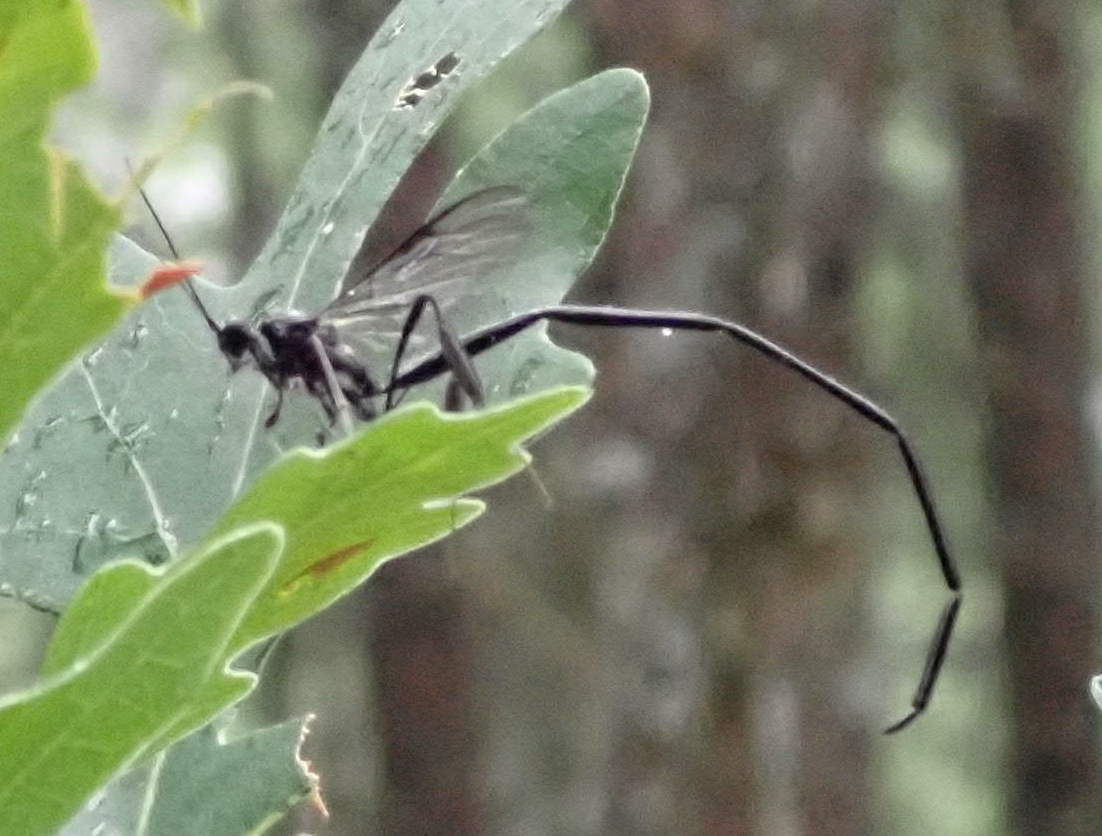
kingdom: Animalia
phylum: Arthropoda
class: Insecta
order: Hymenoptera
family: Pelecinidae
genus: Pelecinus
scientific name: Pelecinus polyturator
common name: American pelecinid wasp
